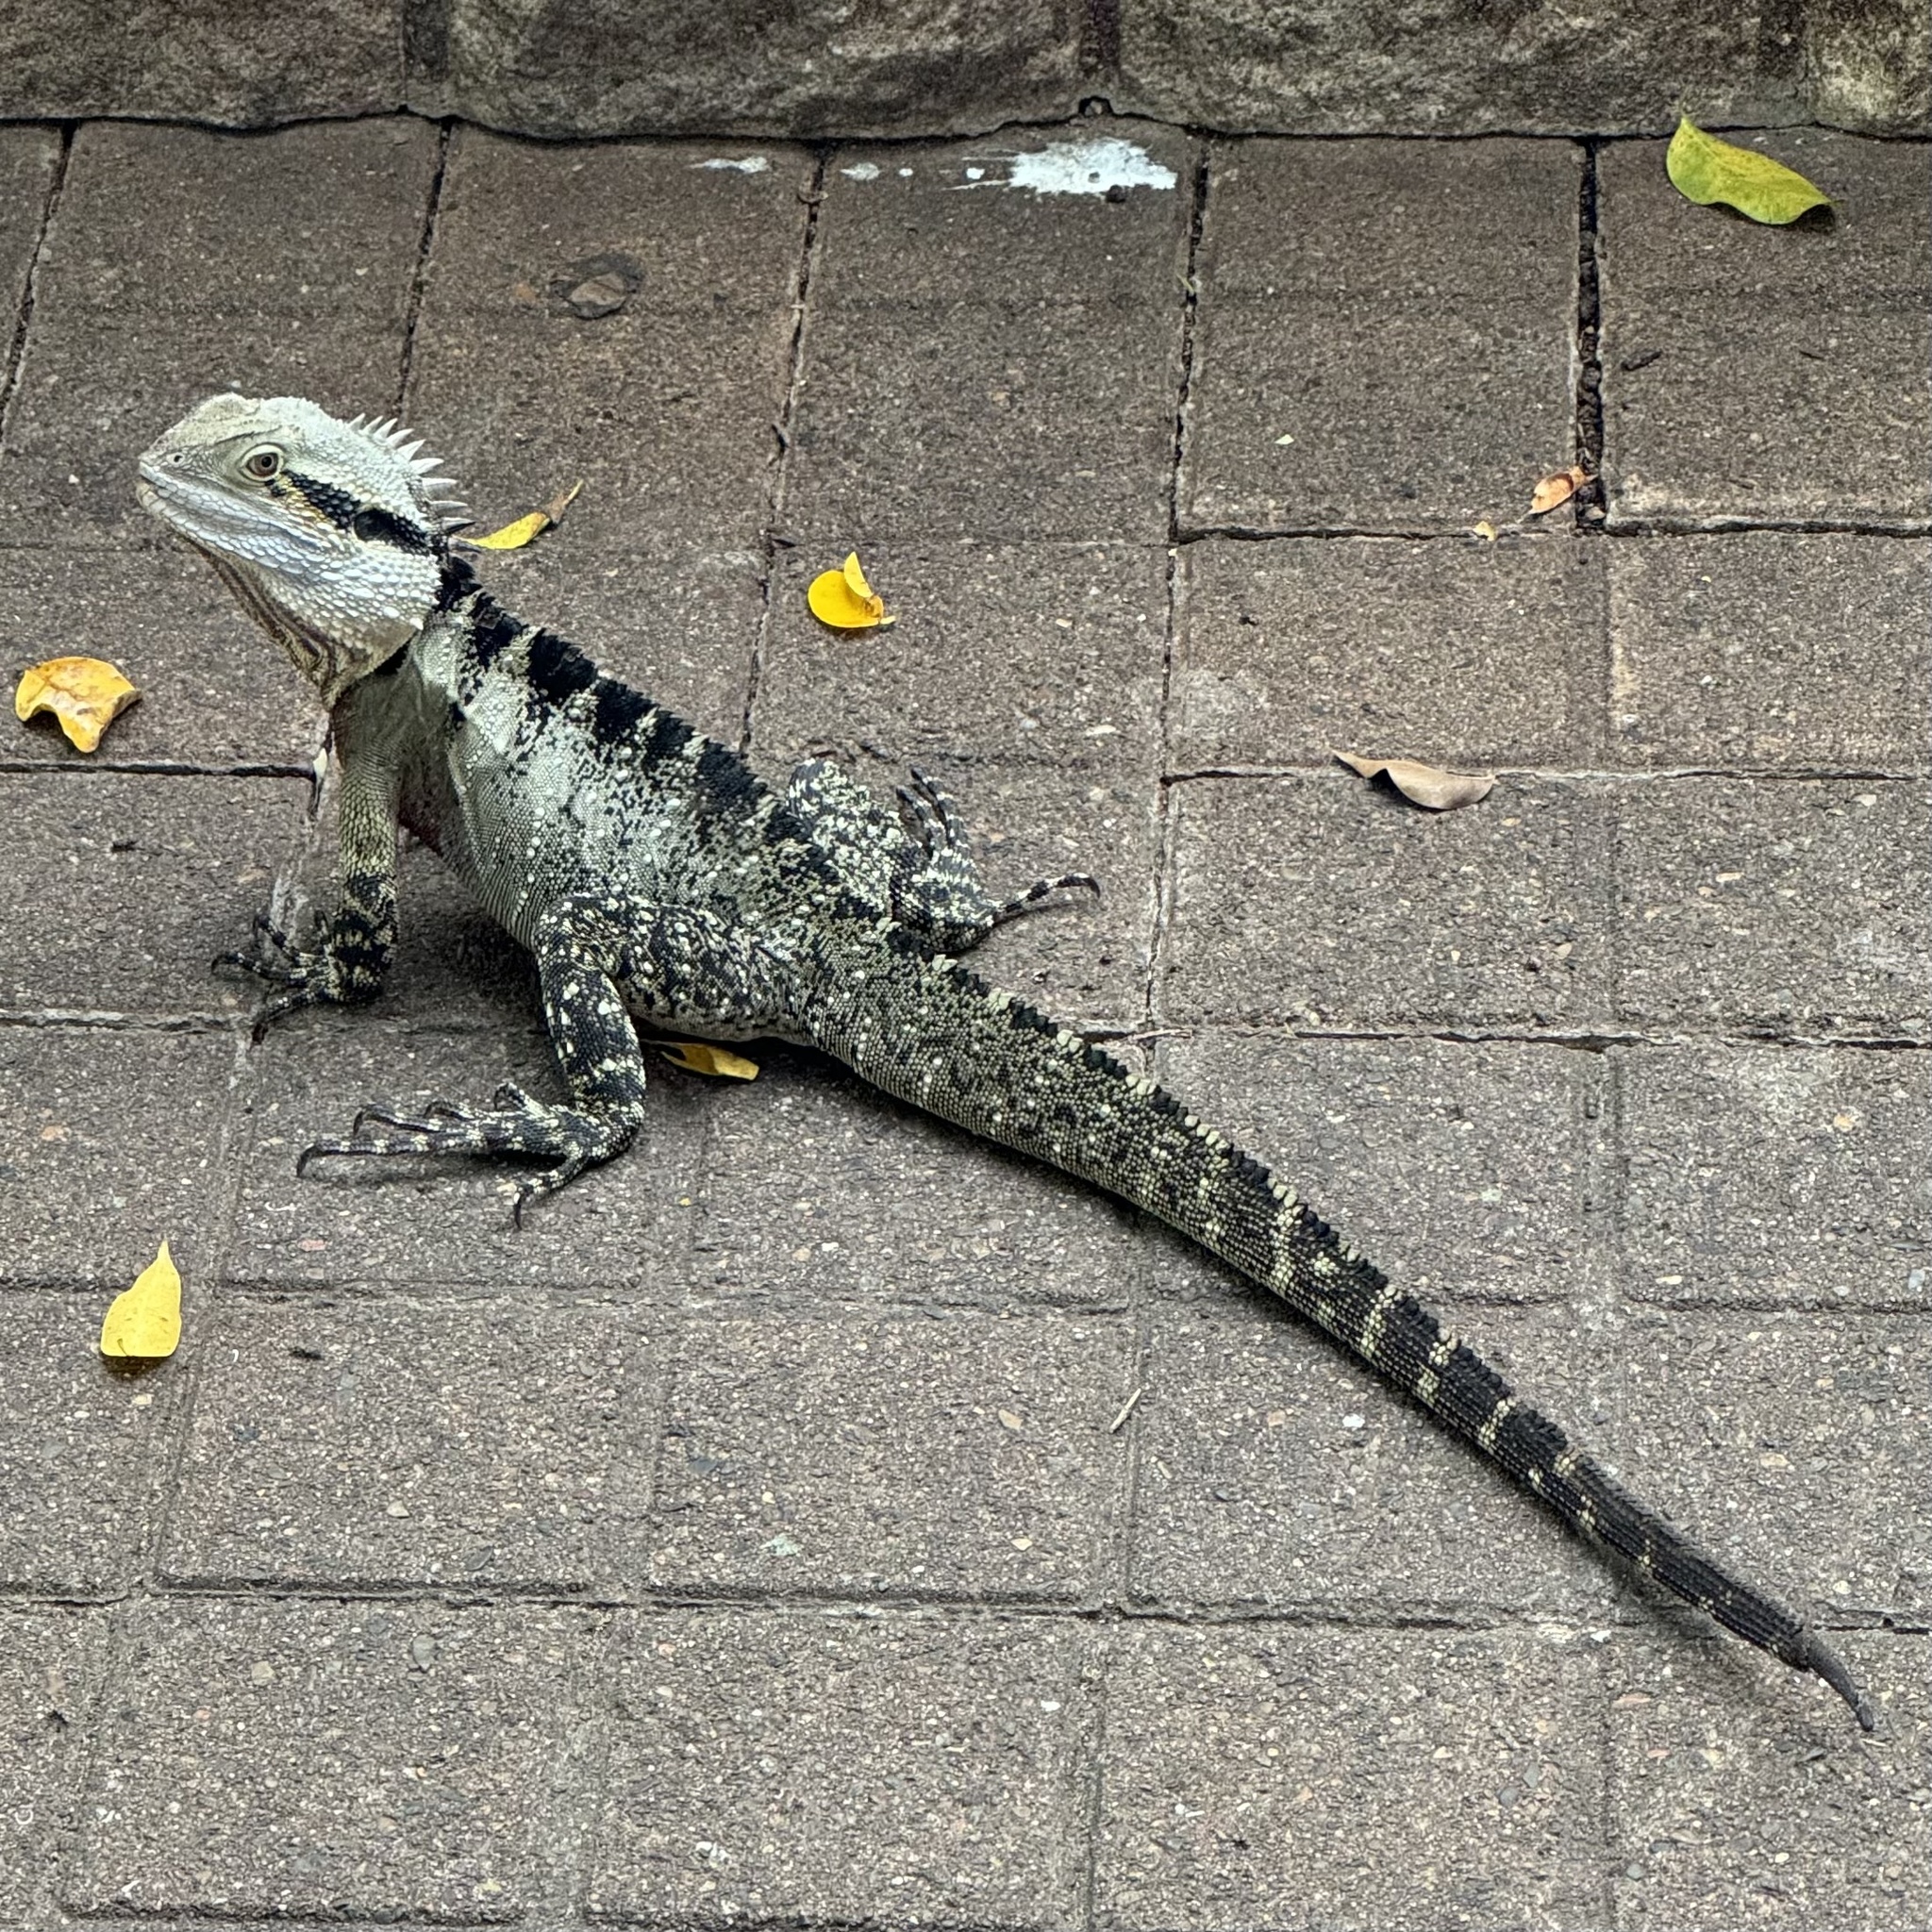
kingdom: Animalia
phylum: Chordata
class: Squamata
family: Agamidae
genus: Intellagama
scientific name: Intellagama lesueurii
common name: Eastern water dragon
